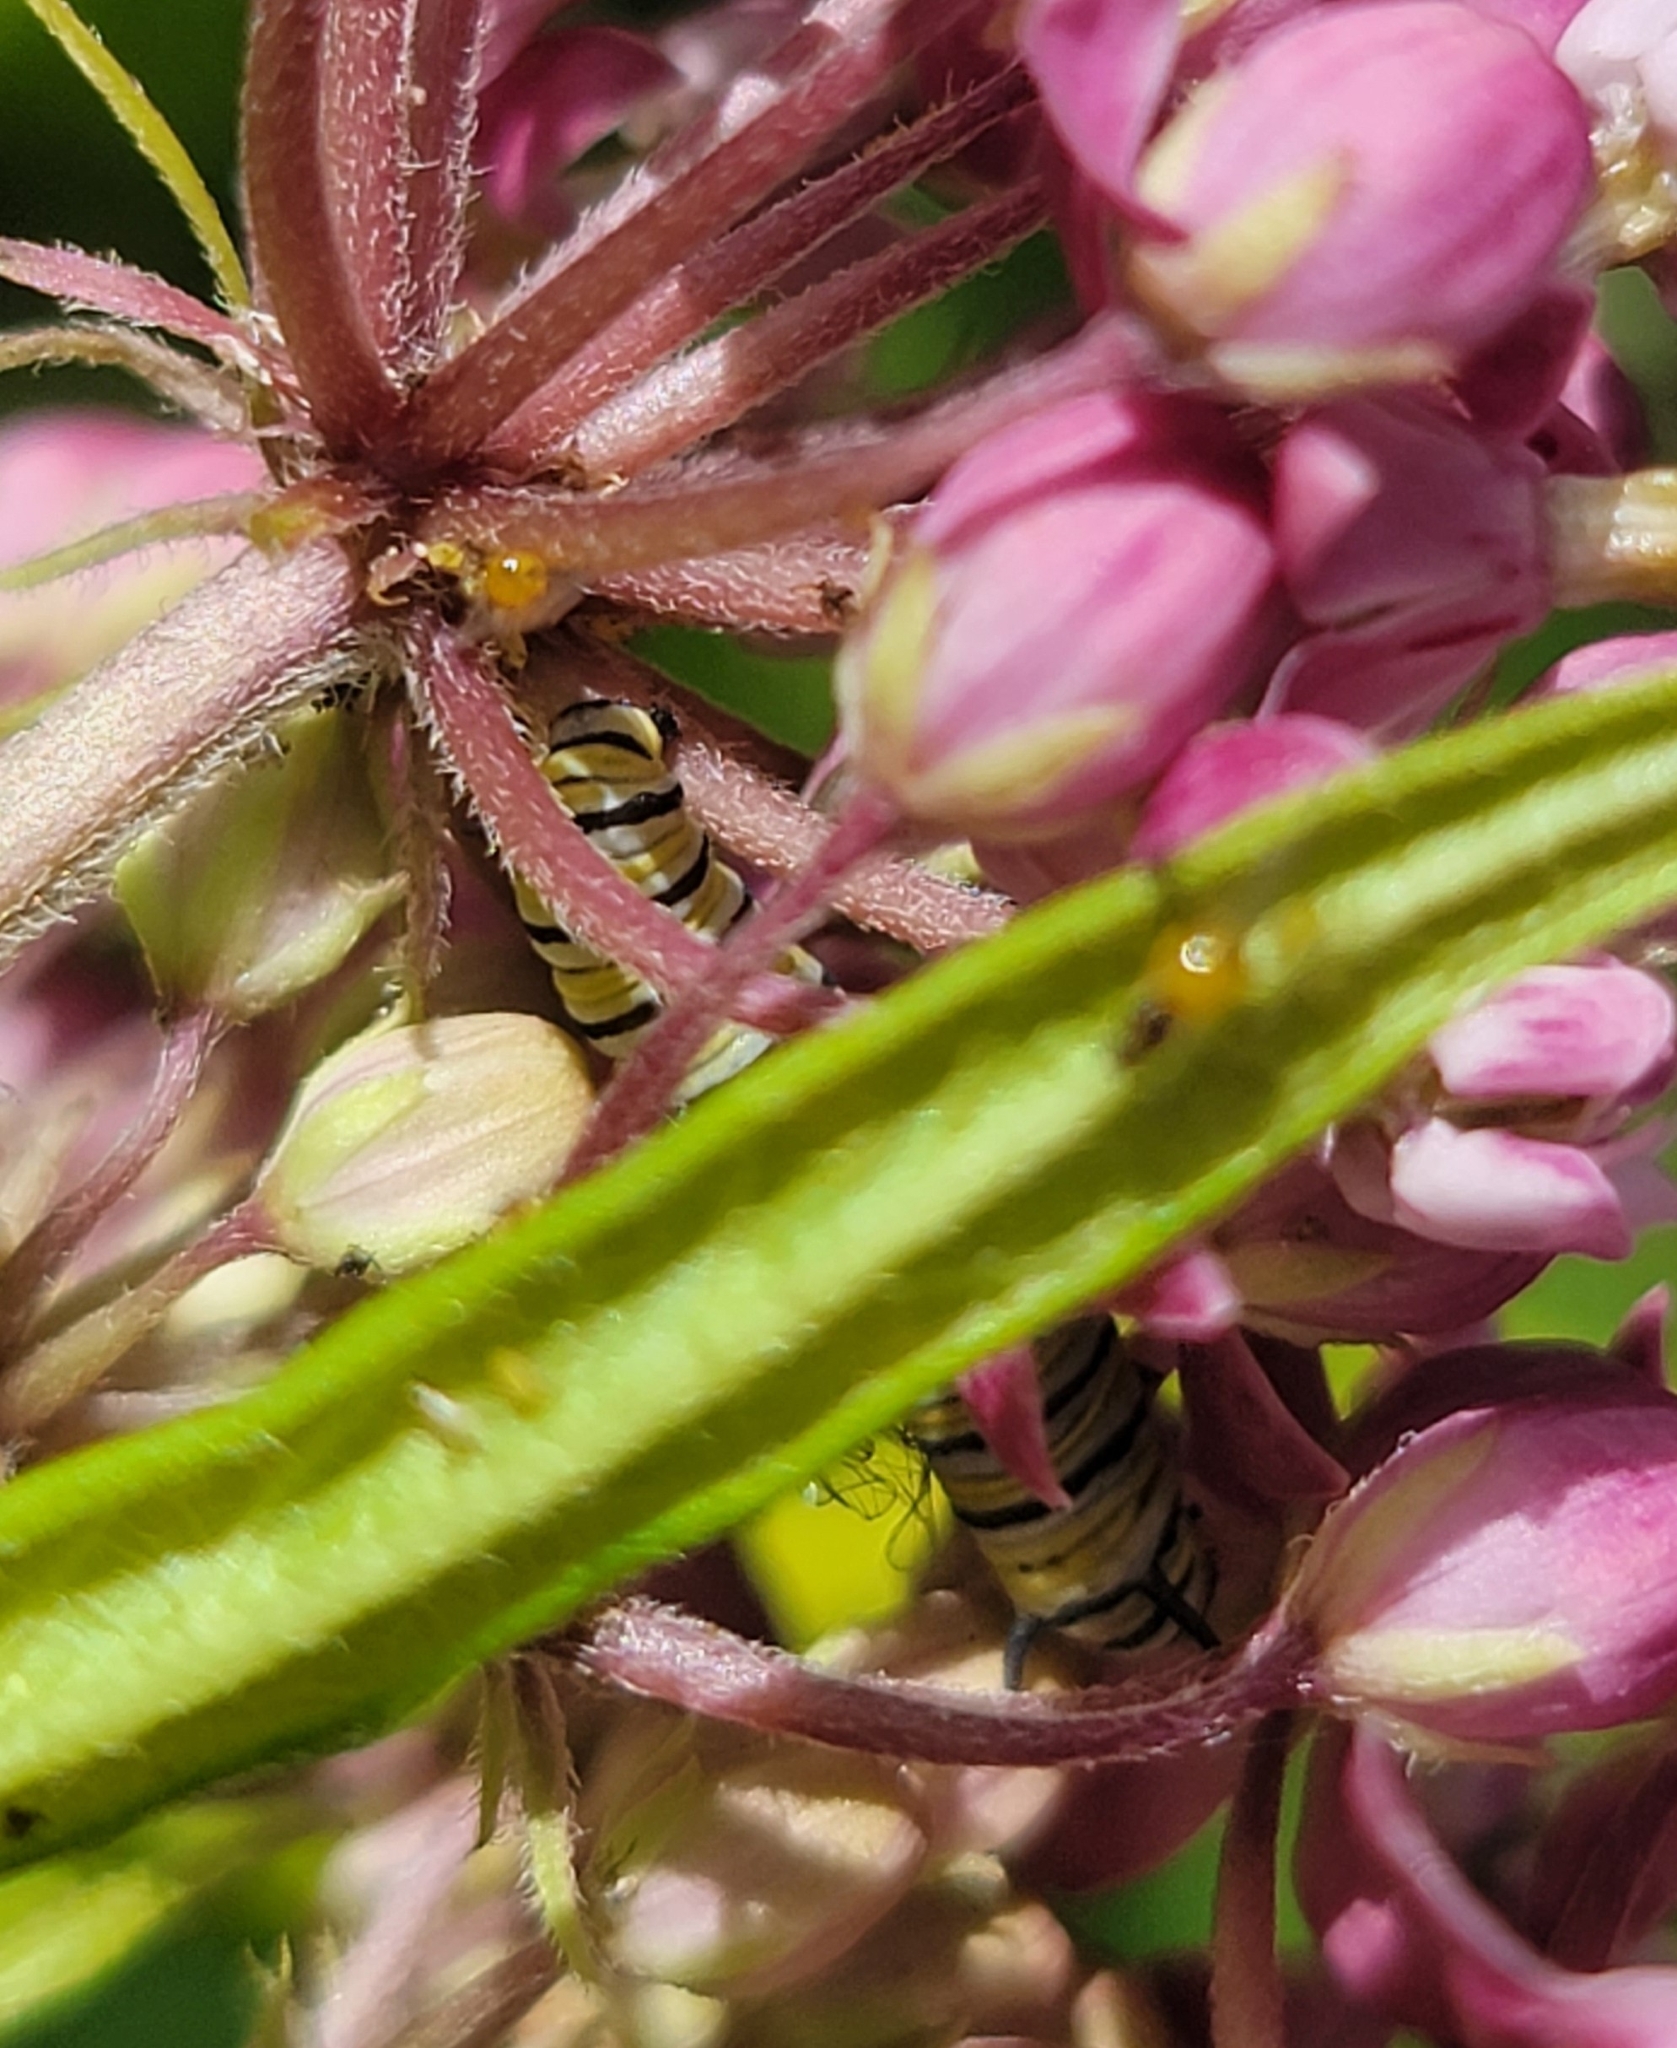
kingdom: Animalia
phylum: Arthropoda
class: Insecta
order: Lepidoptera
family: Nymphalidae
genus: Danaus
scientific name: Danaus plexippus
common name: Monarch
